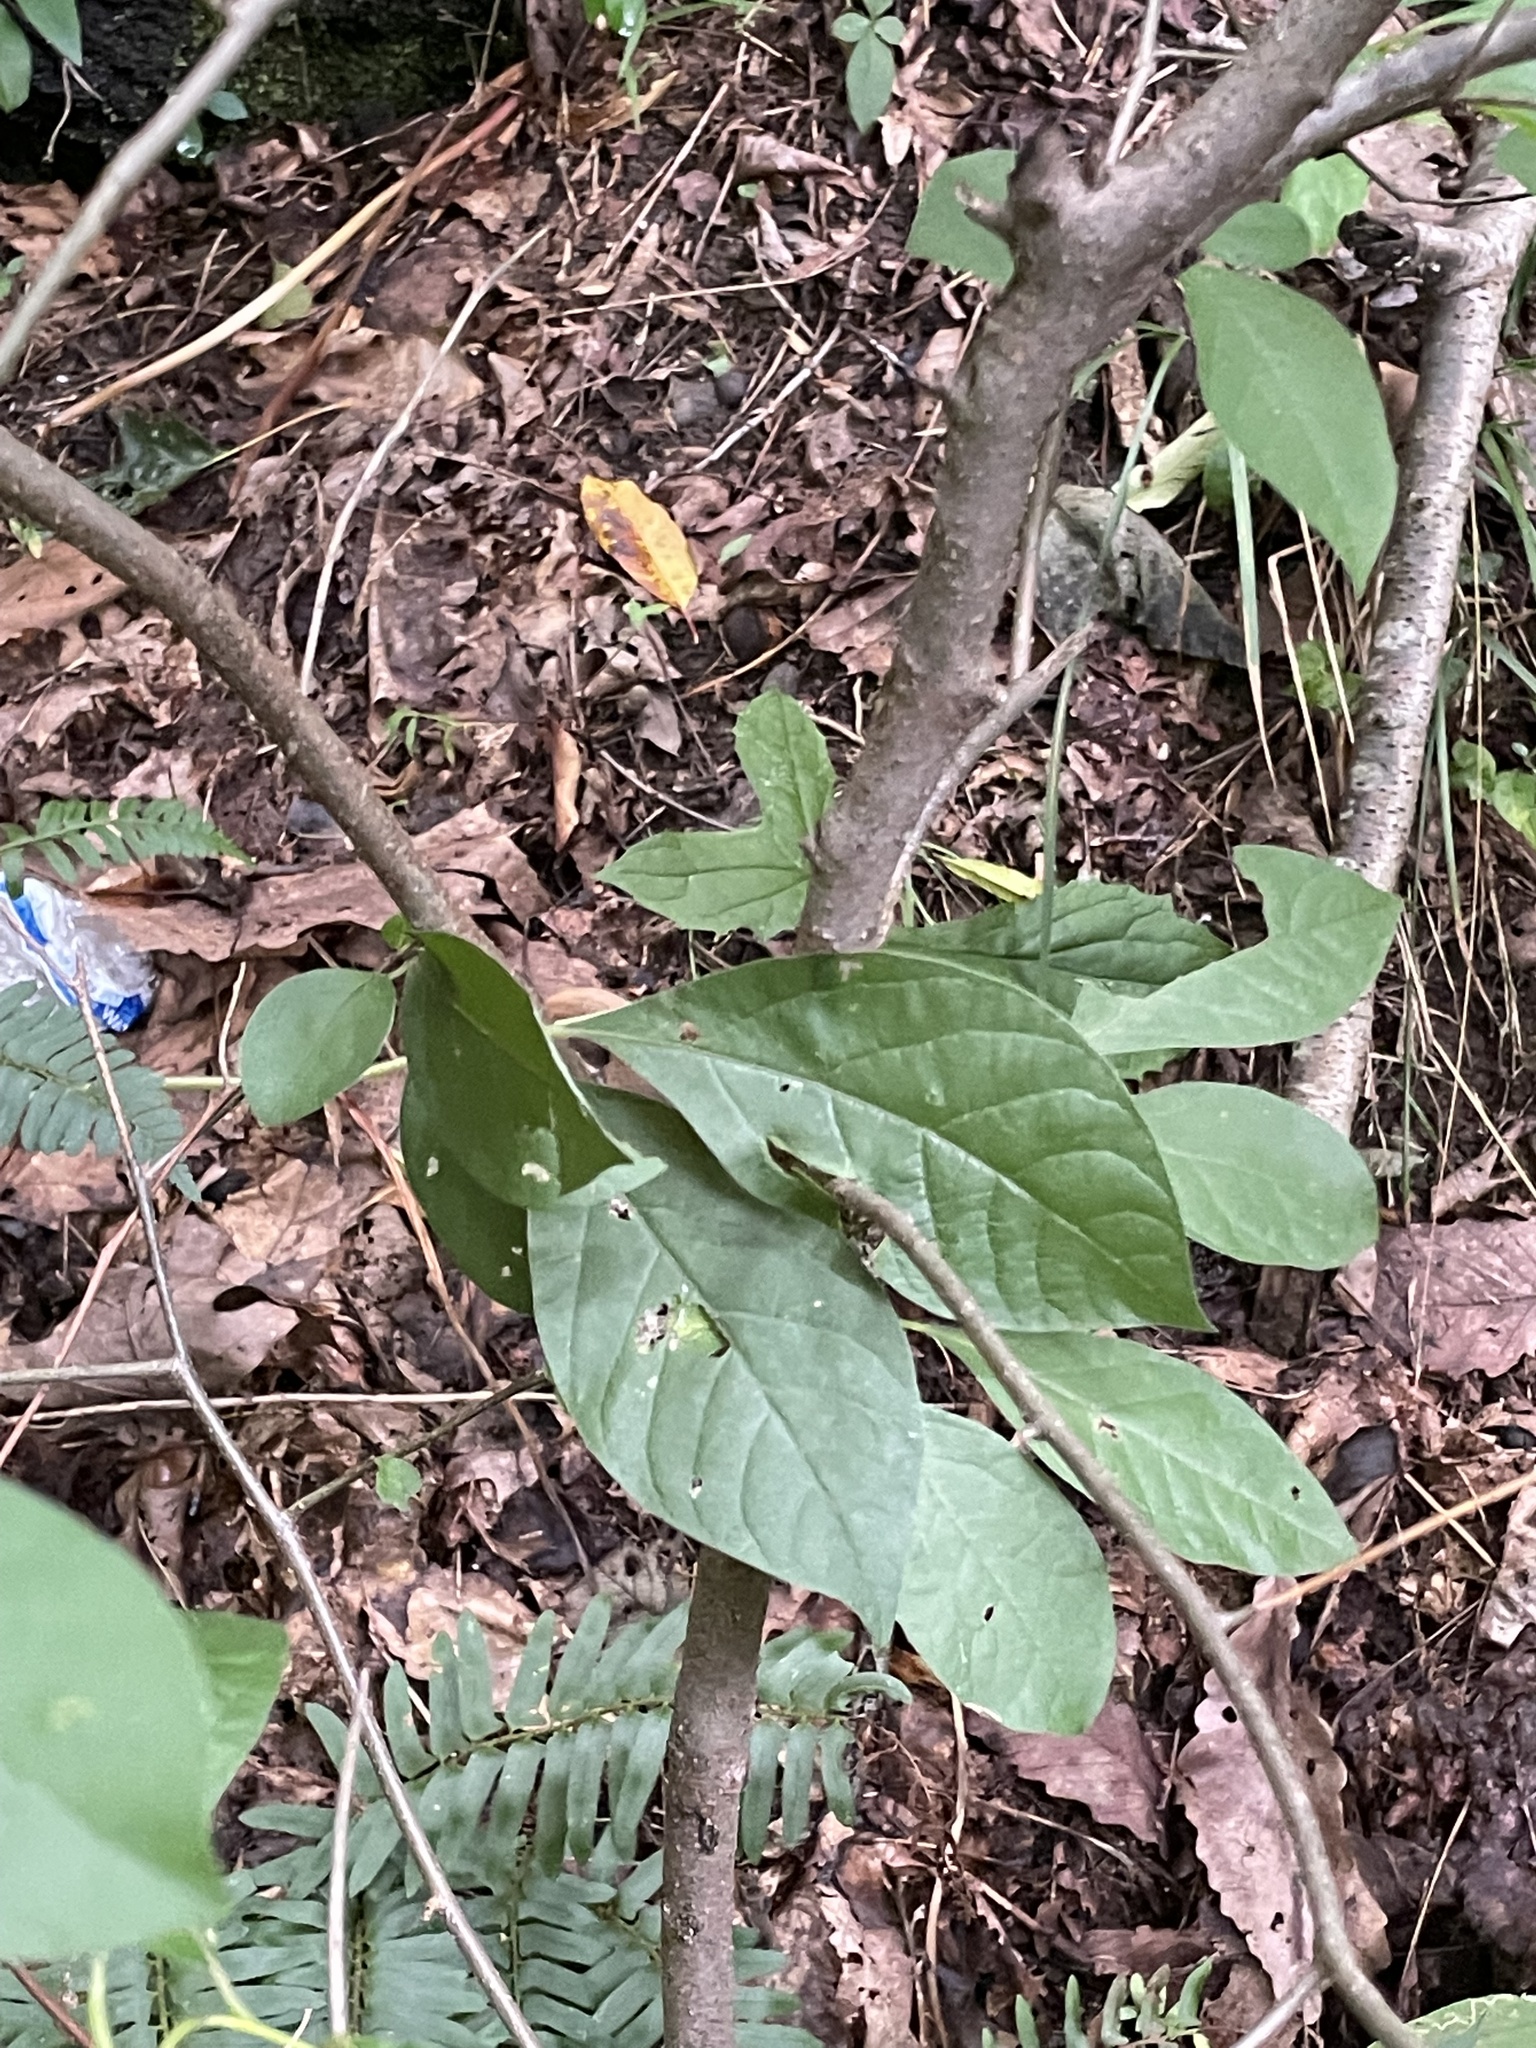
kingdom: Plantae
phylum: Tracheophyta
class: Magnoliopsida
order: Laurales
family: Lauraceae
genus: Lindera
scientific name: Lindera benzoin
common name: Spicebush
